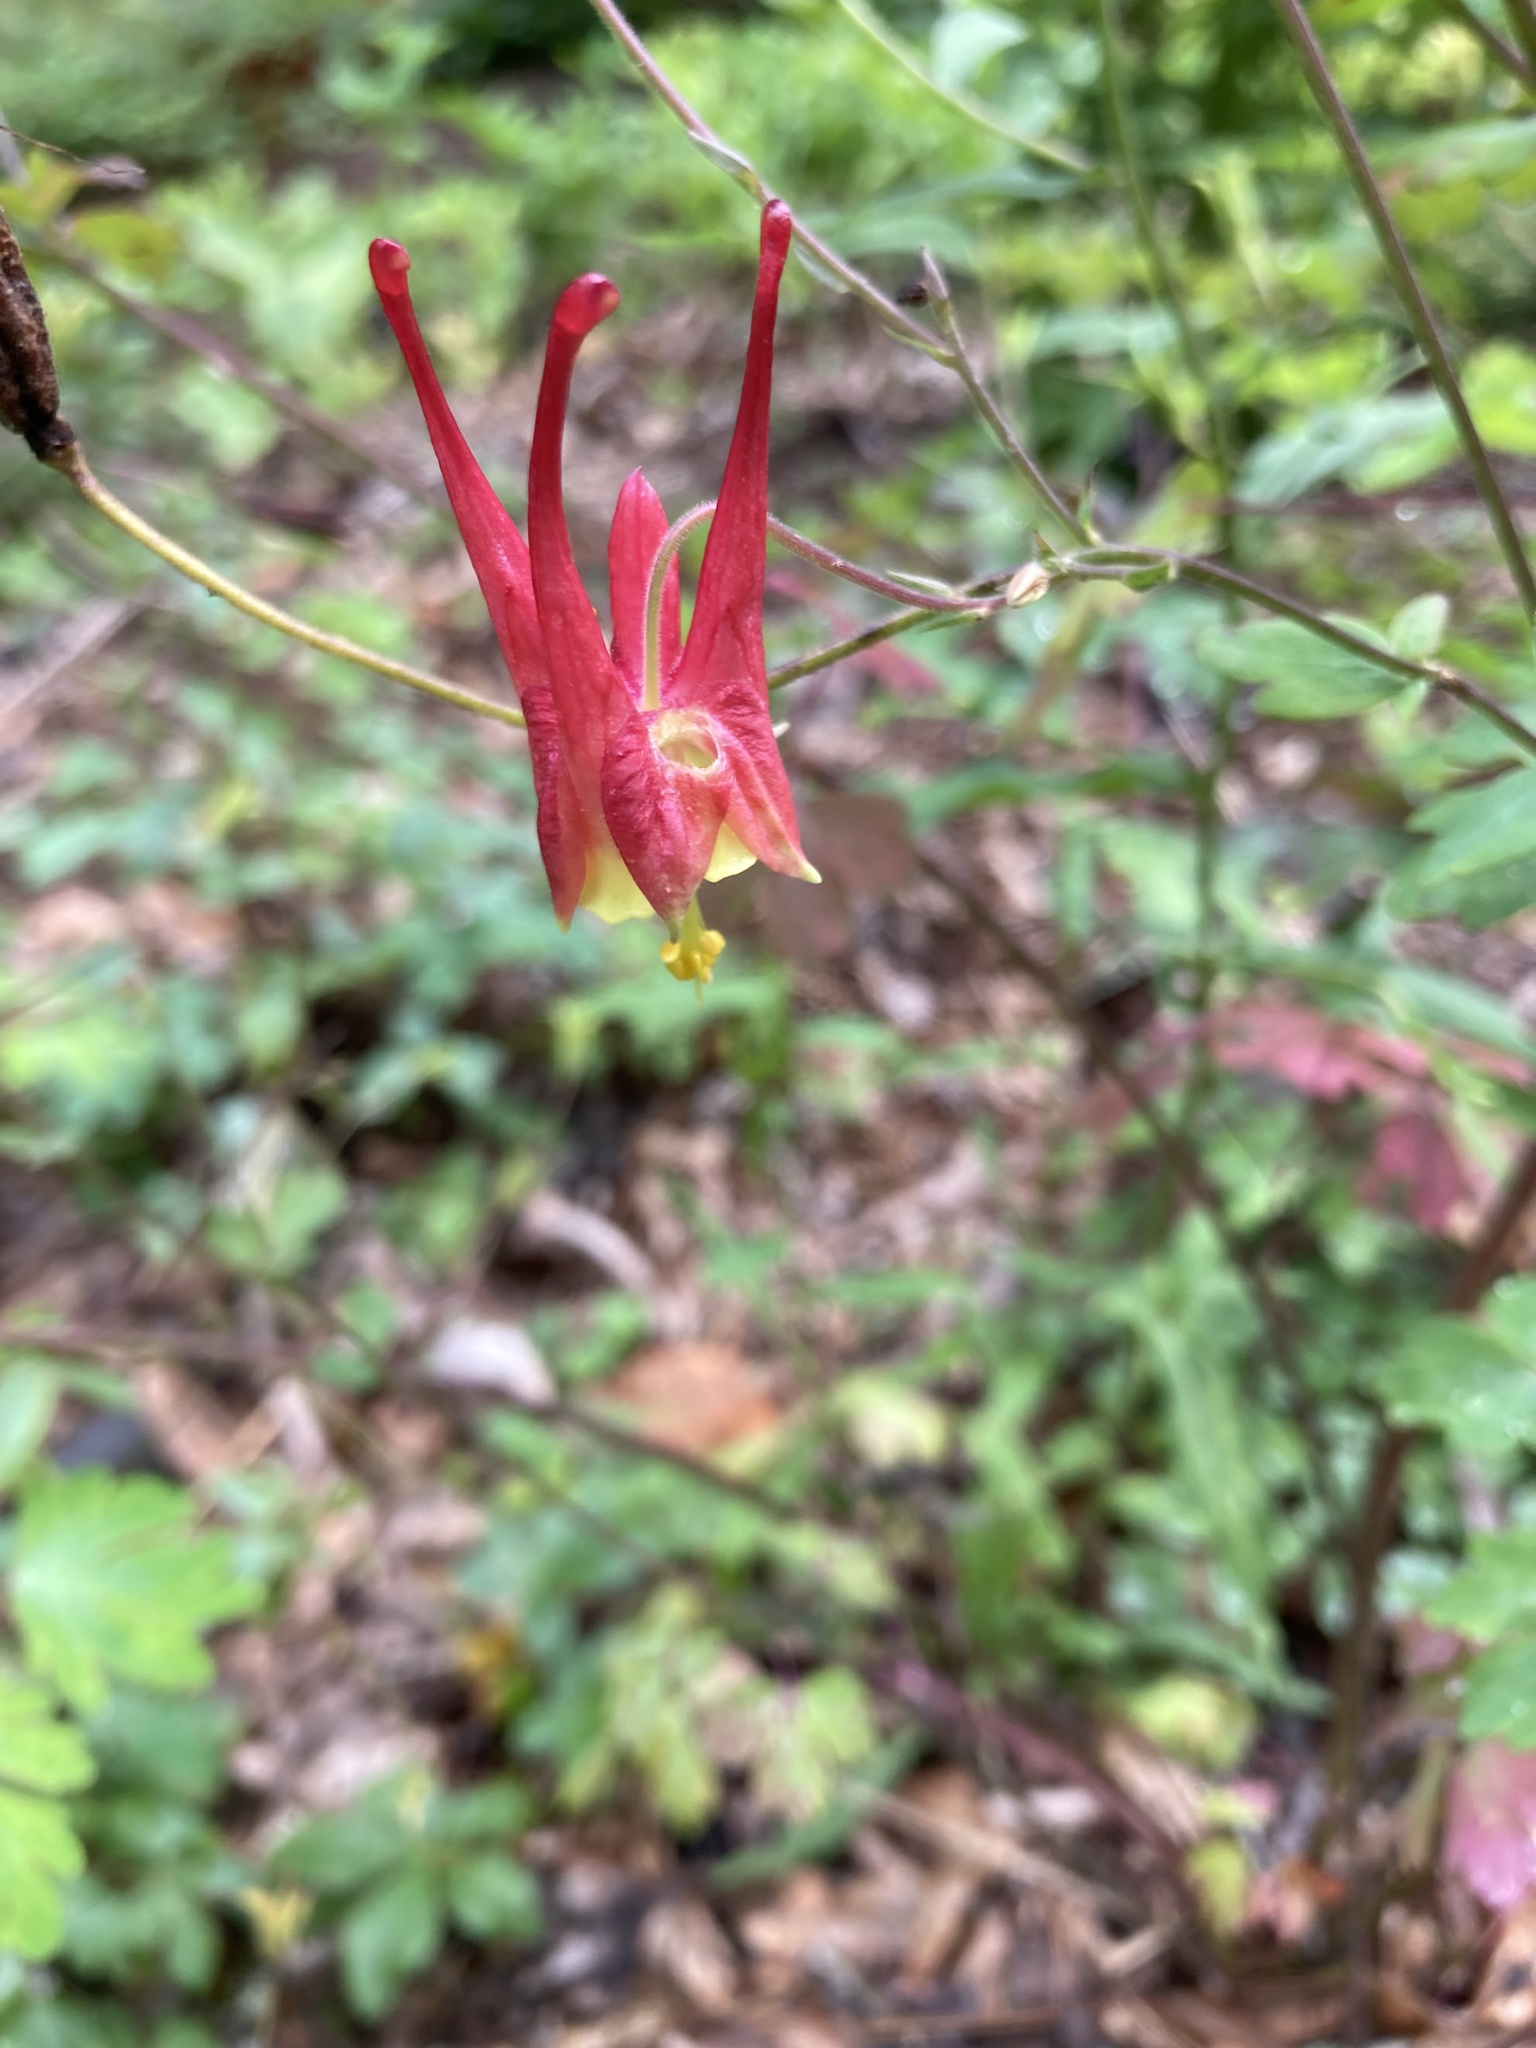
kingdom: Plantae
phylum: Tracheophyta
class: Magnoliopsida
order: Ranunculales
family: Ranunculaceae
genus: Aquilegia
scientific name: Aquilegia canadensis
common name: American columbine
